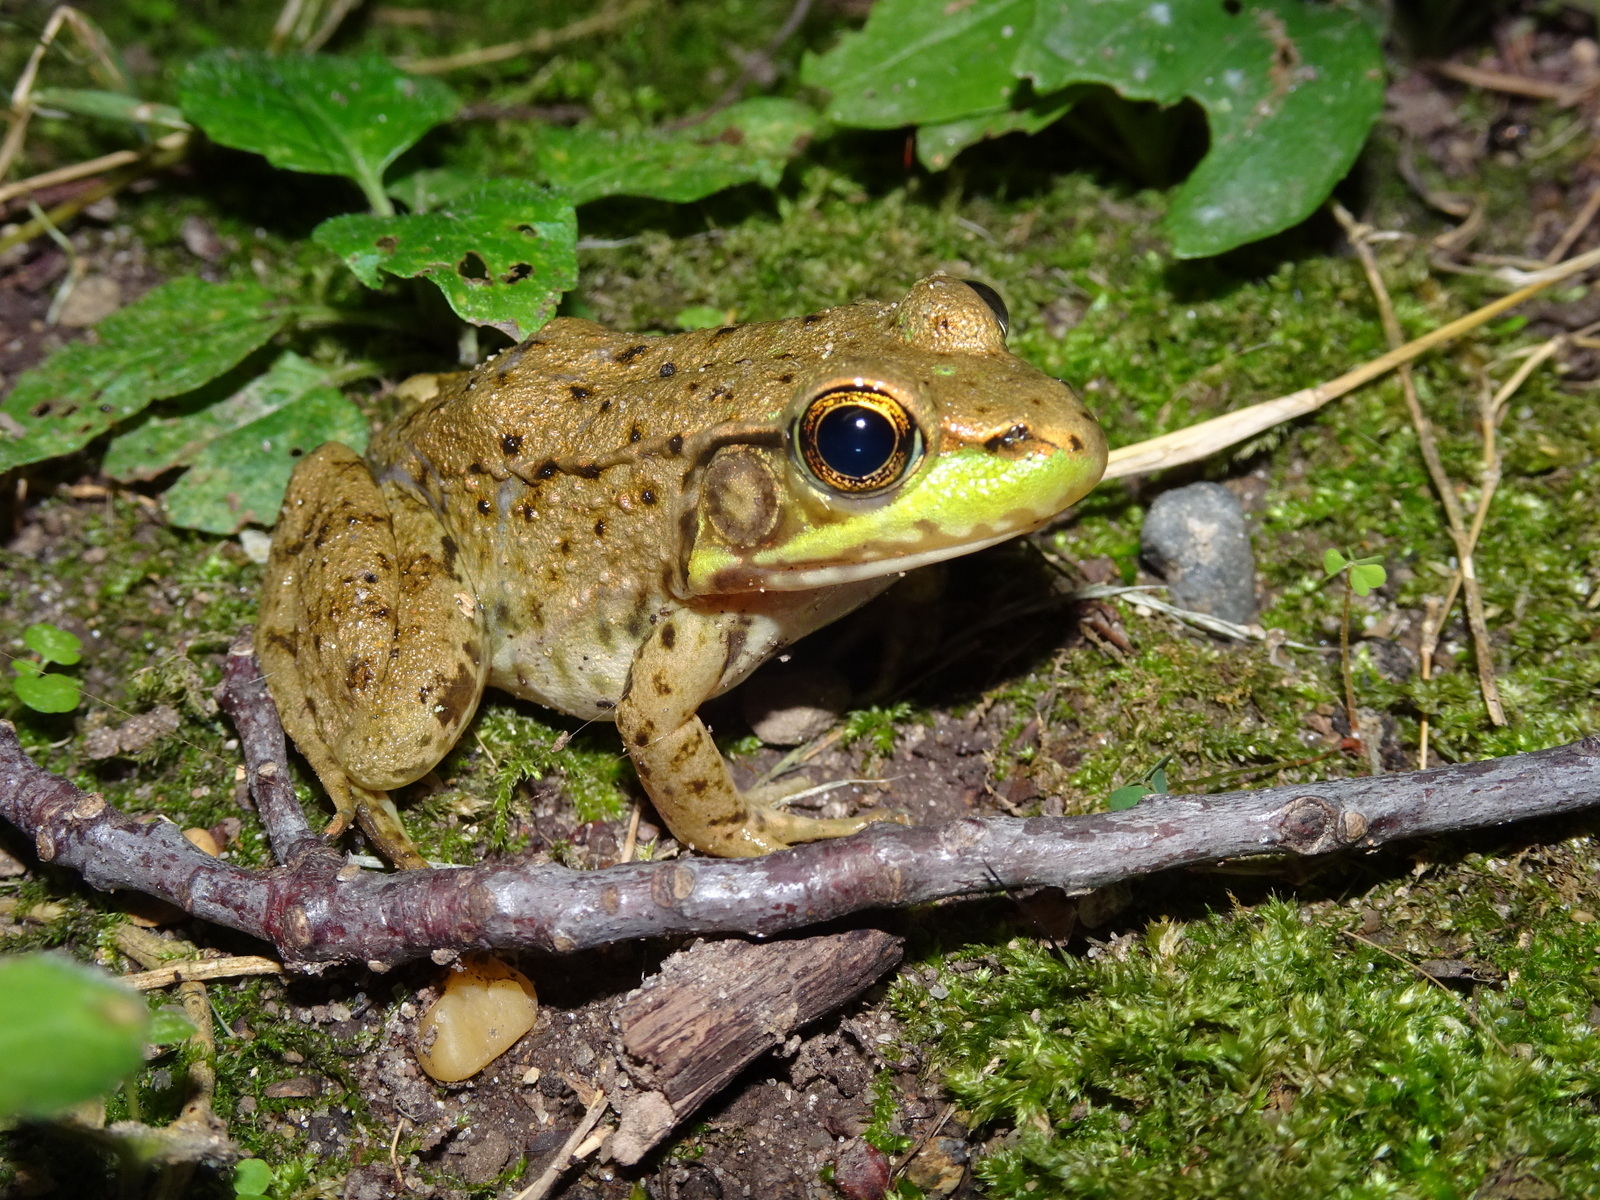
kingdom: Animalia
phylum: Chordata
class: Amphibia
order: Anura
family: Ranidae
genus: Lithobates
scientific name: Lithobates clamitans
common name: Green frog
